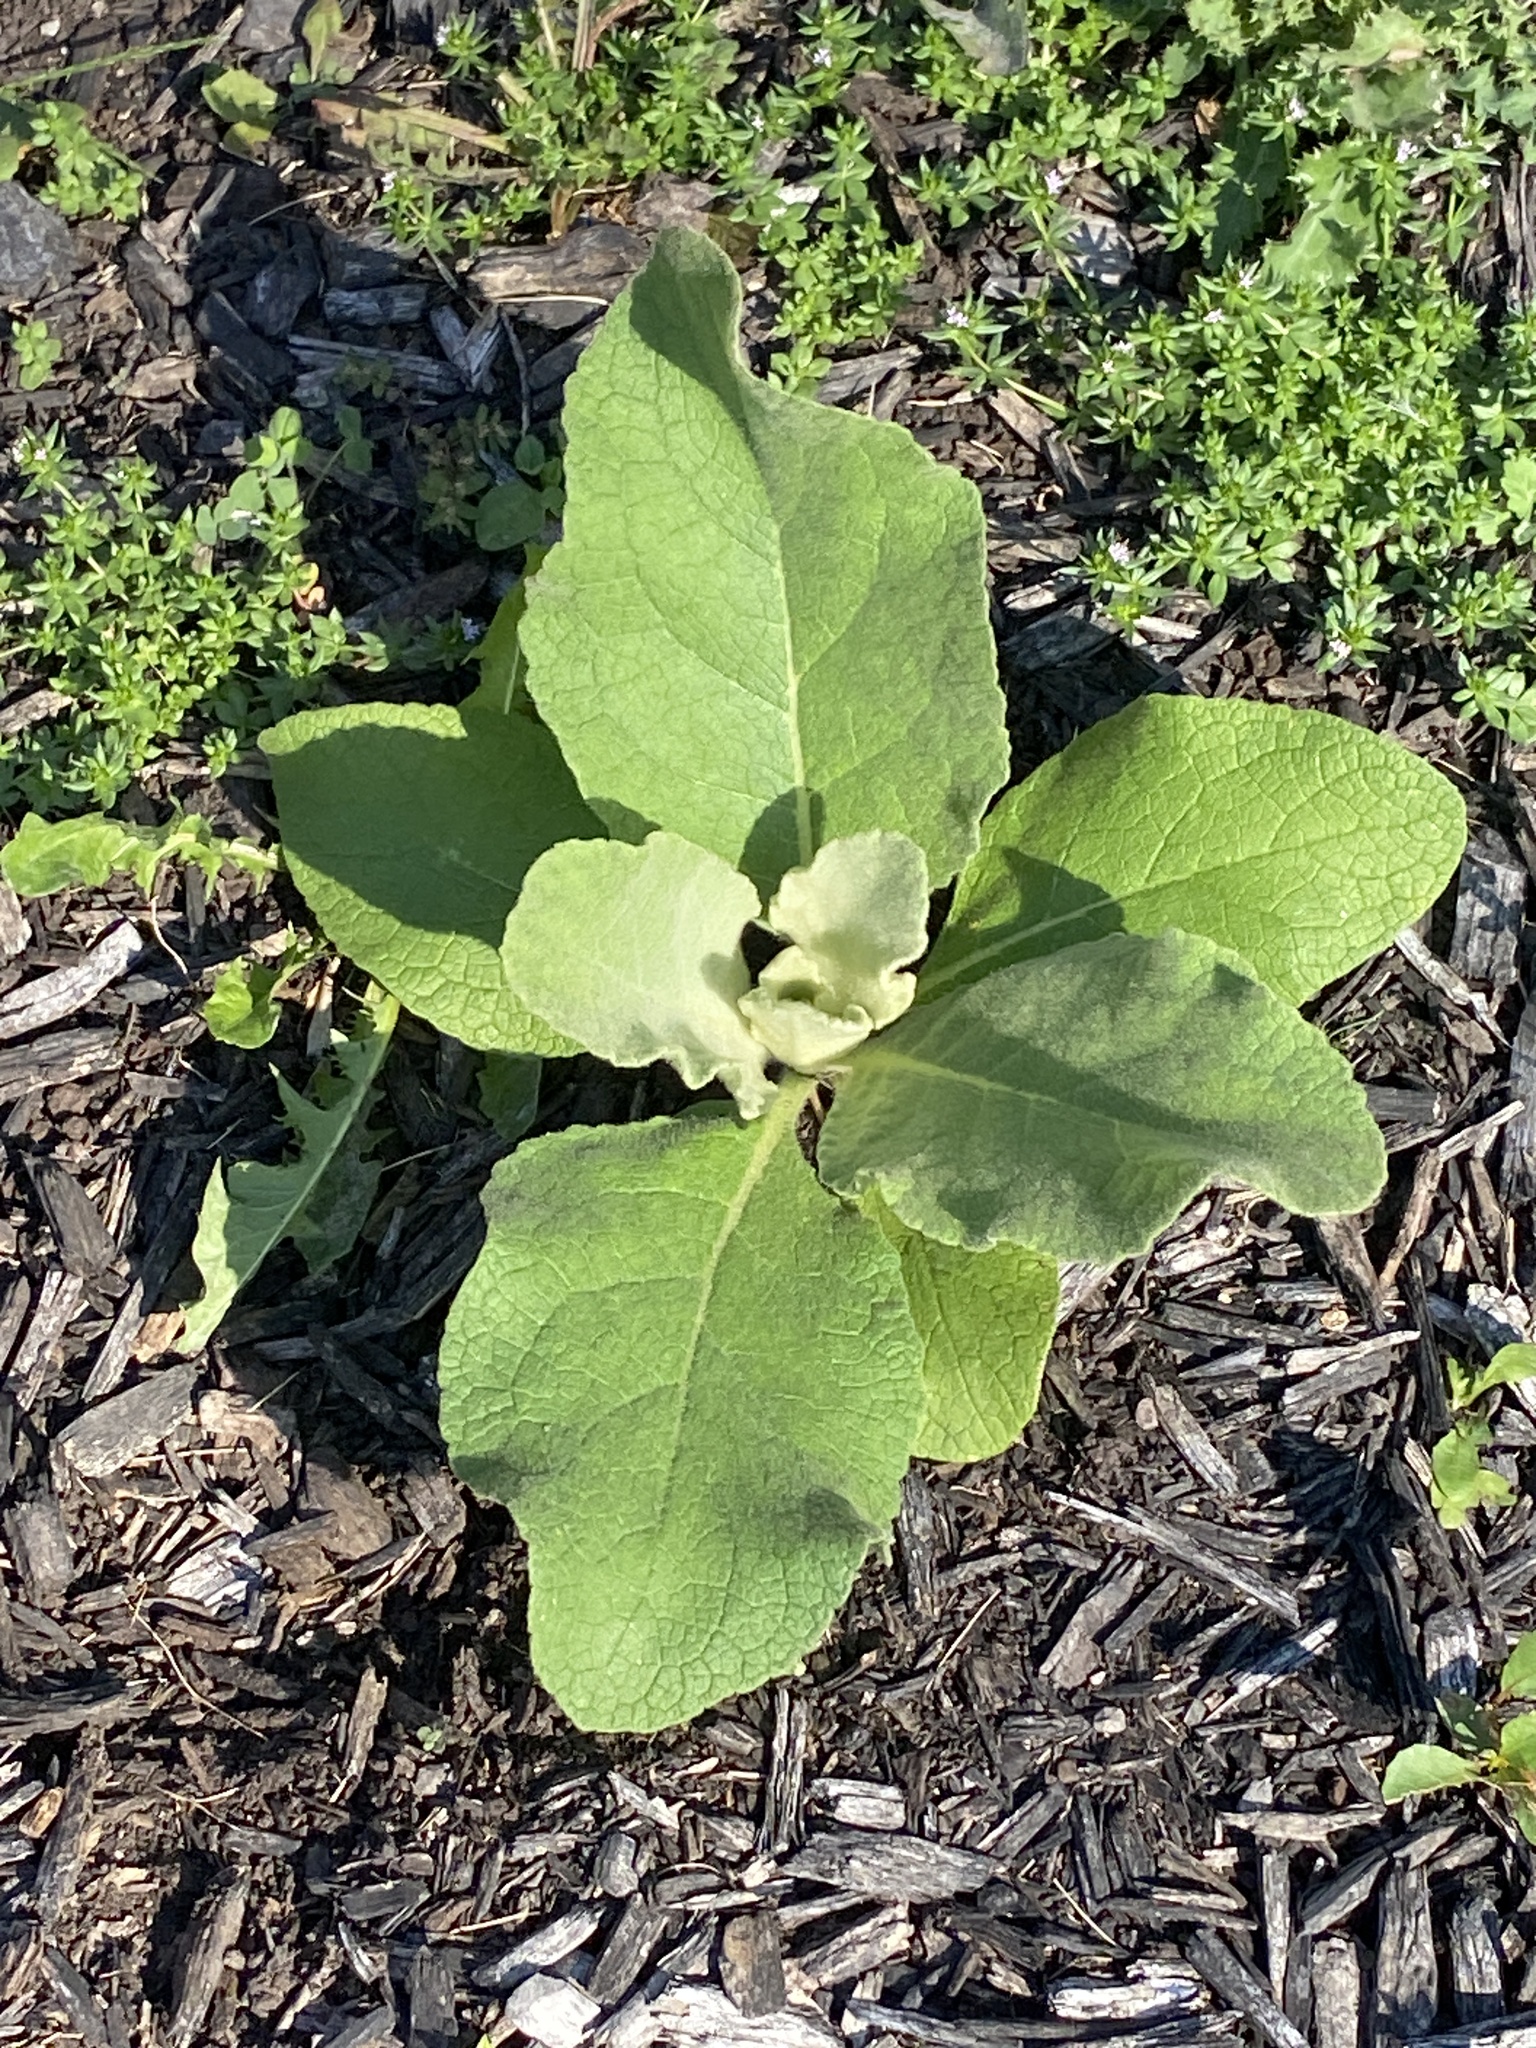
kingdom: Plantae
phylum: Tracheophyta
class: Magnoliopsida
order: Lamiales
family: Scrophulariaceae
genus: Verbascum
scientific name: Verbascum thapsus
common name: Common mullein
